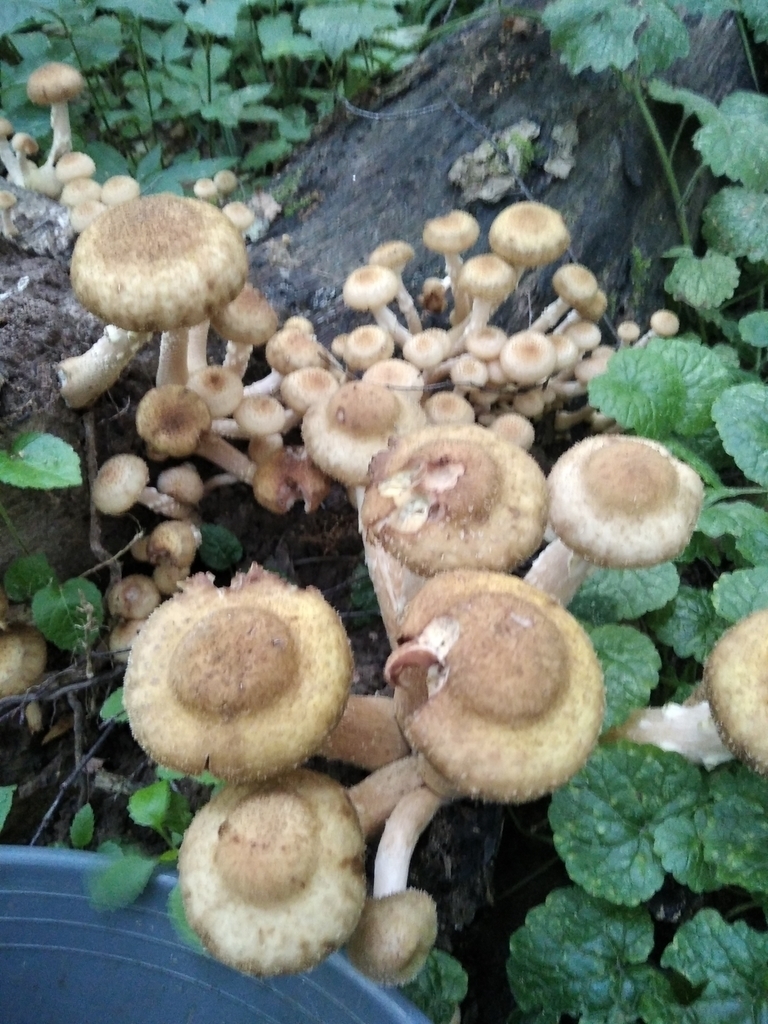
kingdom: Fungi
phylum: Basidiomycota
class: Agaricomycetes
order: Agaricales
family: Physalacriaceae
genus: Armillaria
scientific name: Armillaria borealis
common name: Northern honey fungus
